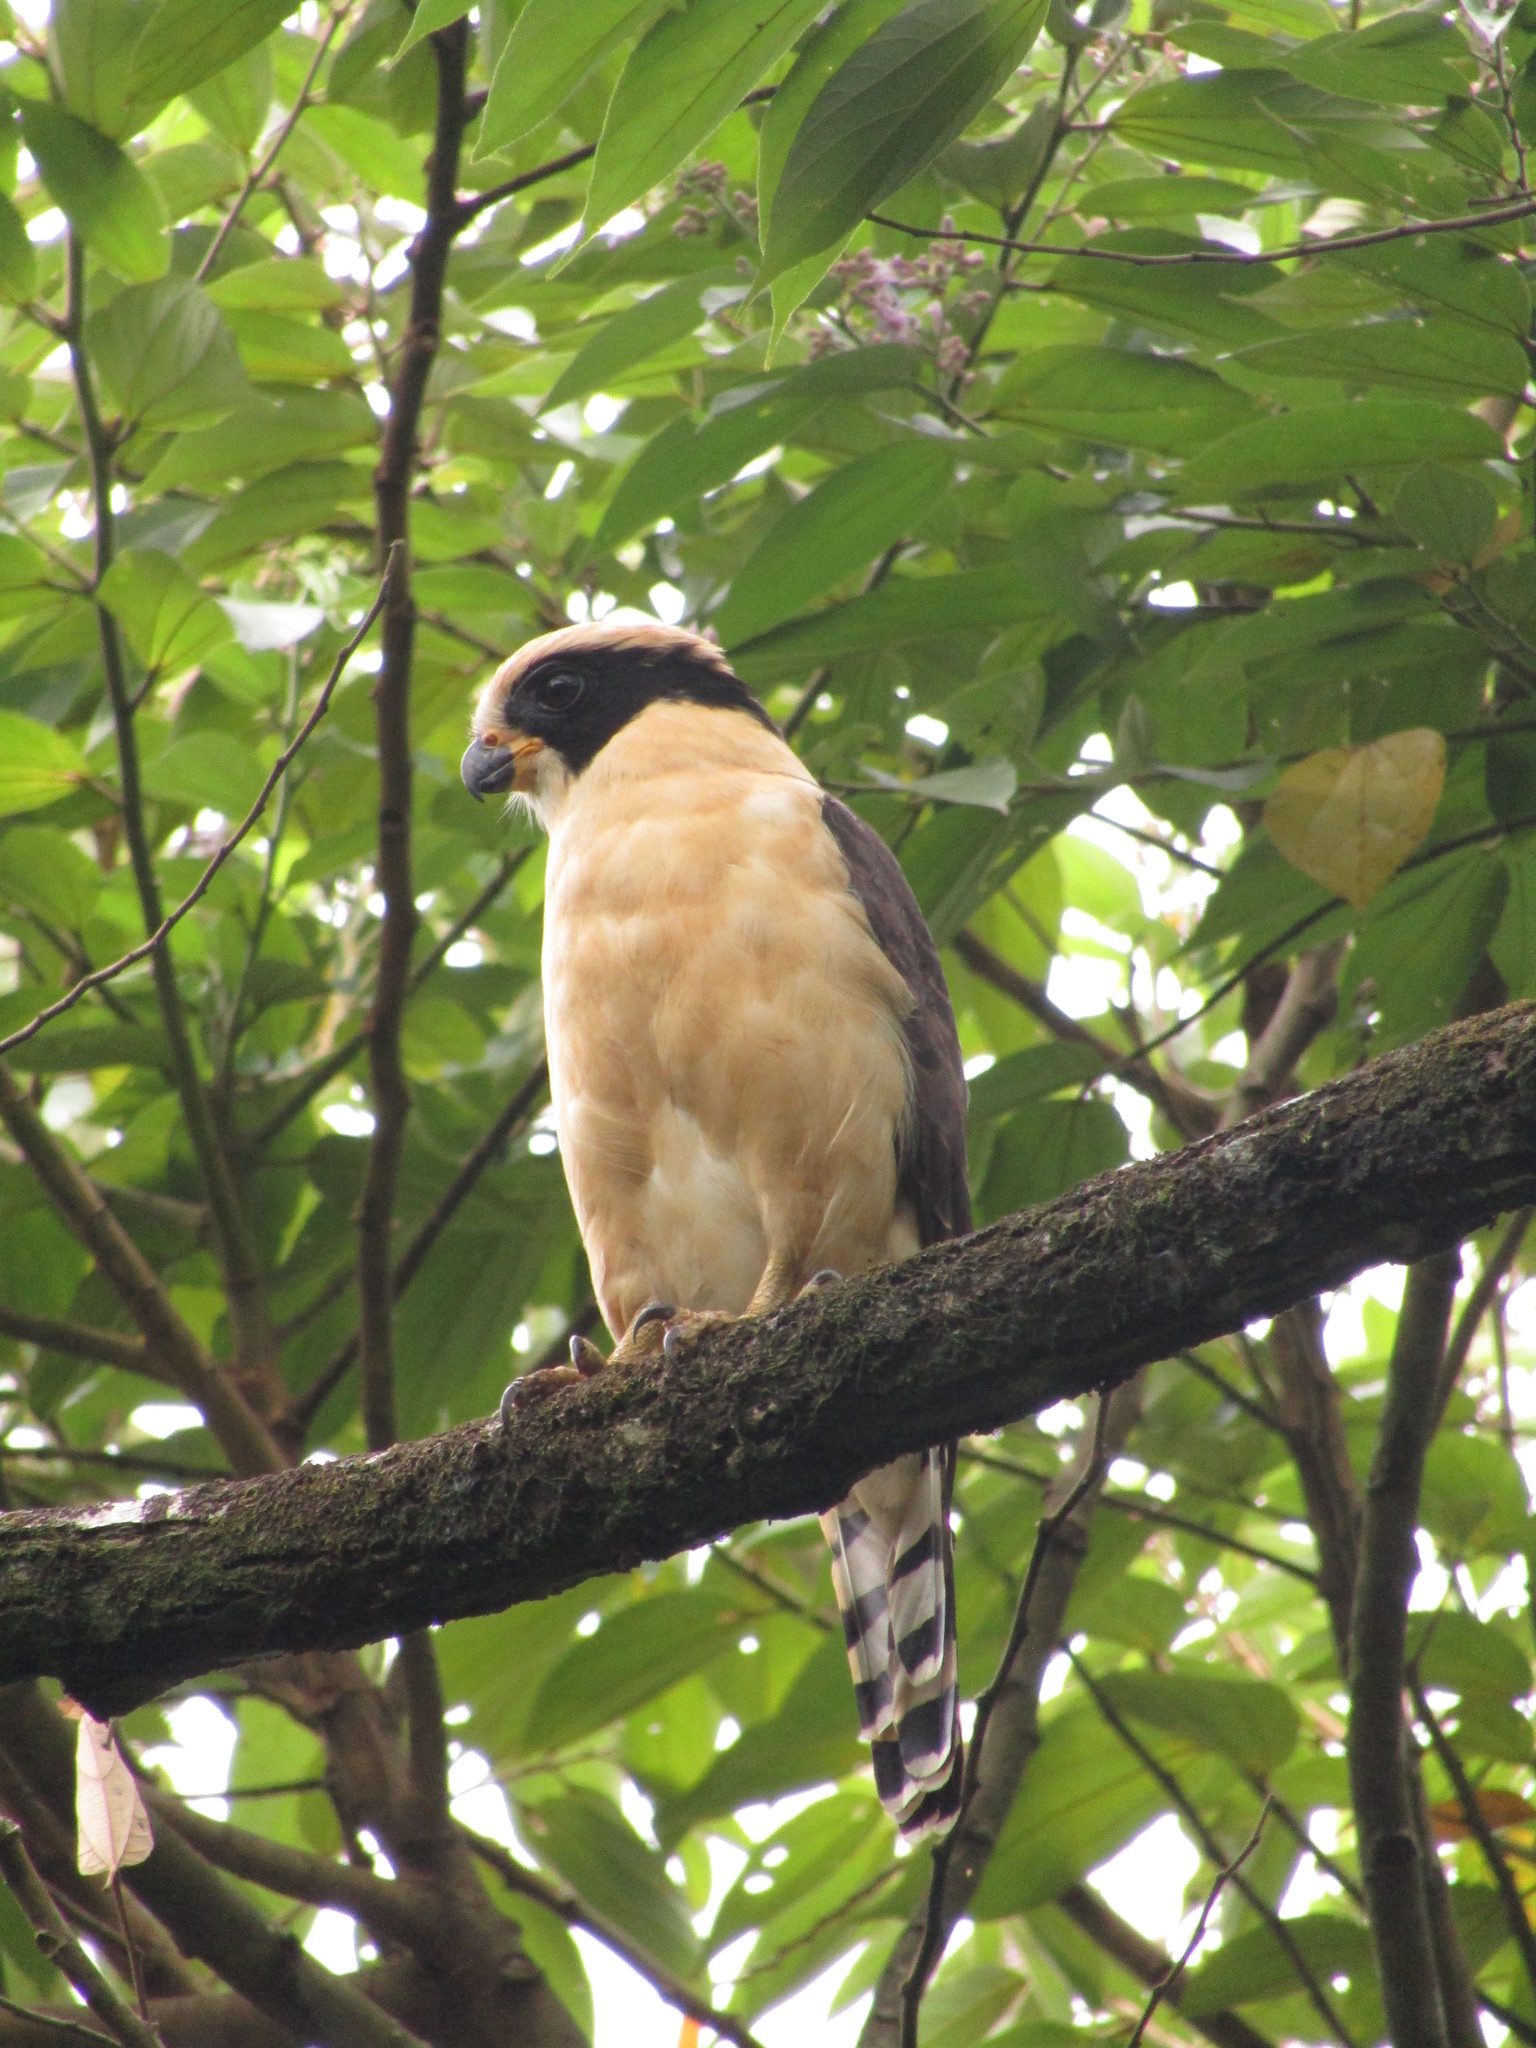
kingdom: Animalia
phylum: Chordata
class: Aves
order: Falconiformes
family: Falconidae
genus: Herpetotheres
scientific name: Herpetotheres cachinnans
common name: Laughing falcon
